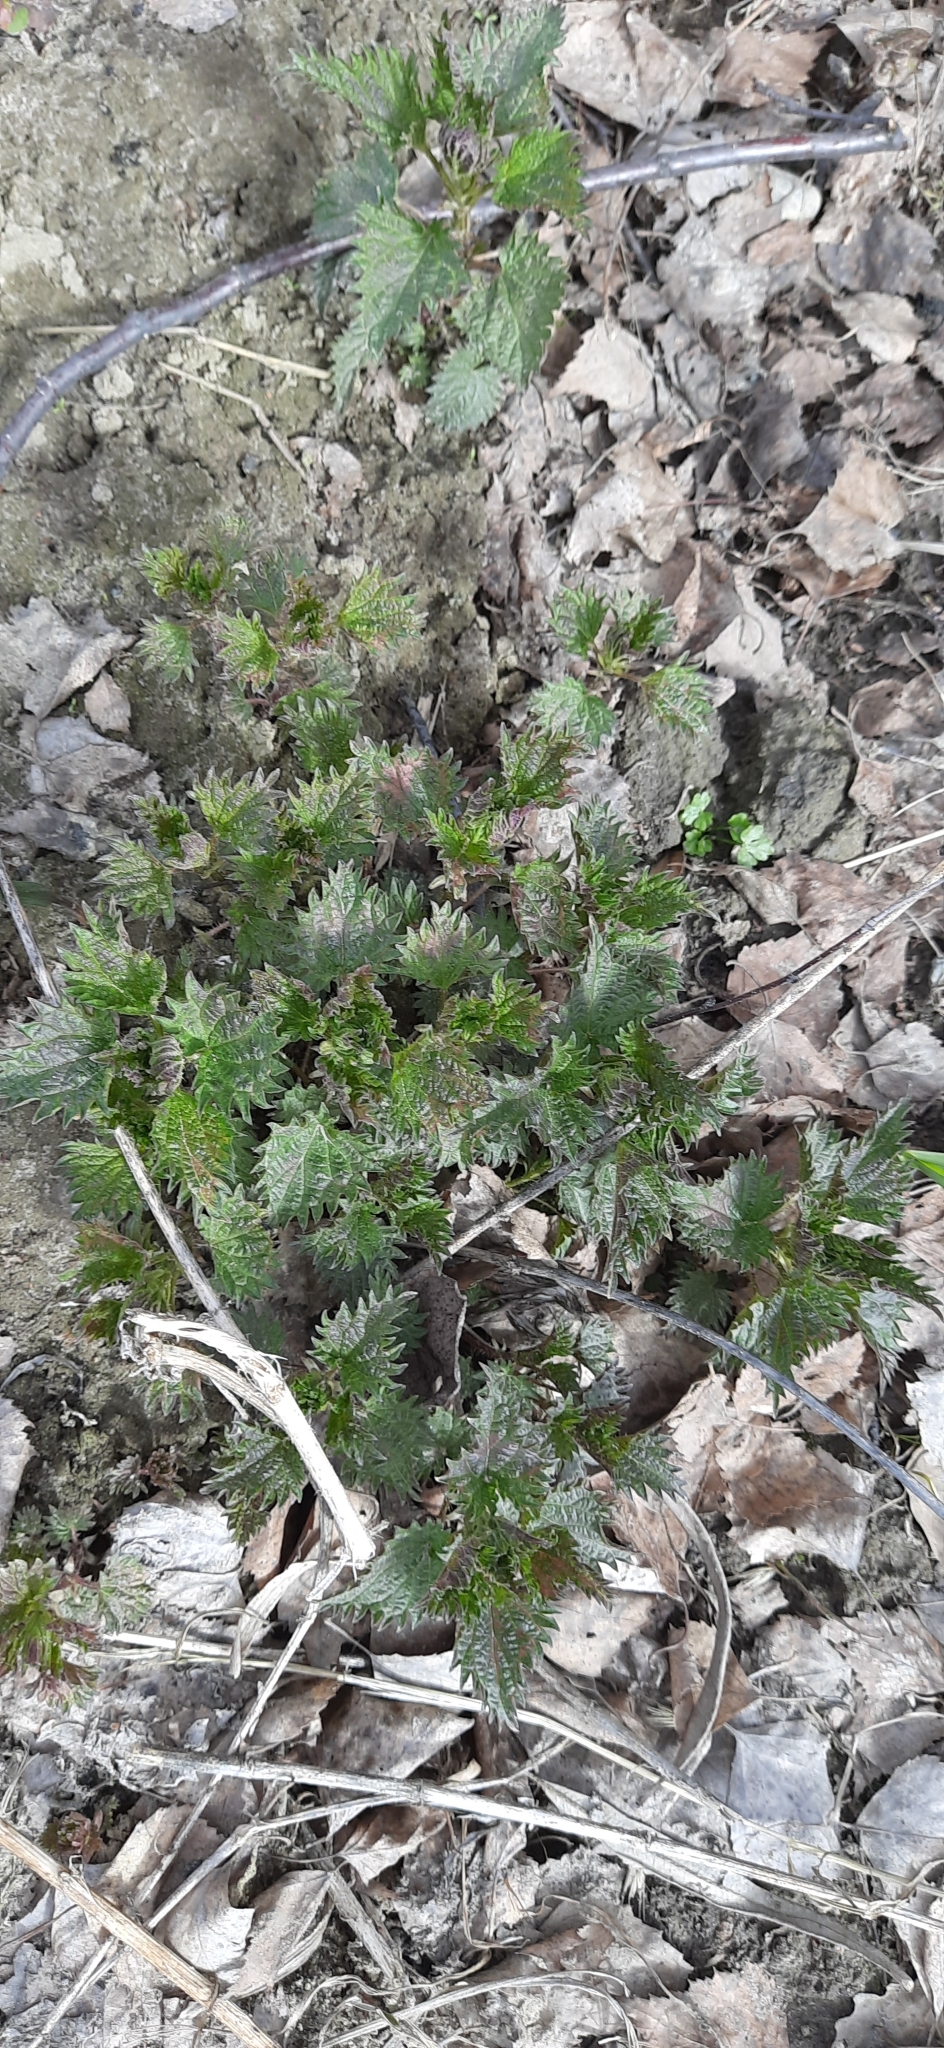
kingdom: Plantae
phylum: Tracheophyta
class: Magnoliopsida
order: Rosales
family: Urticaceae
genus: Urtica
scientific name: Urtica dioica
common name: Common nettle
